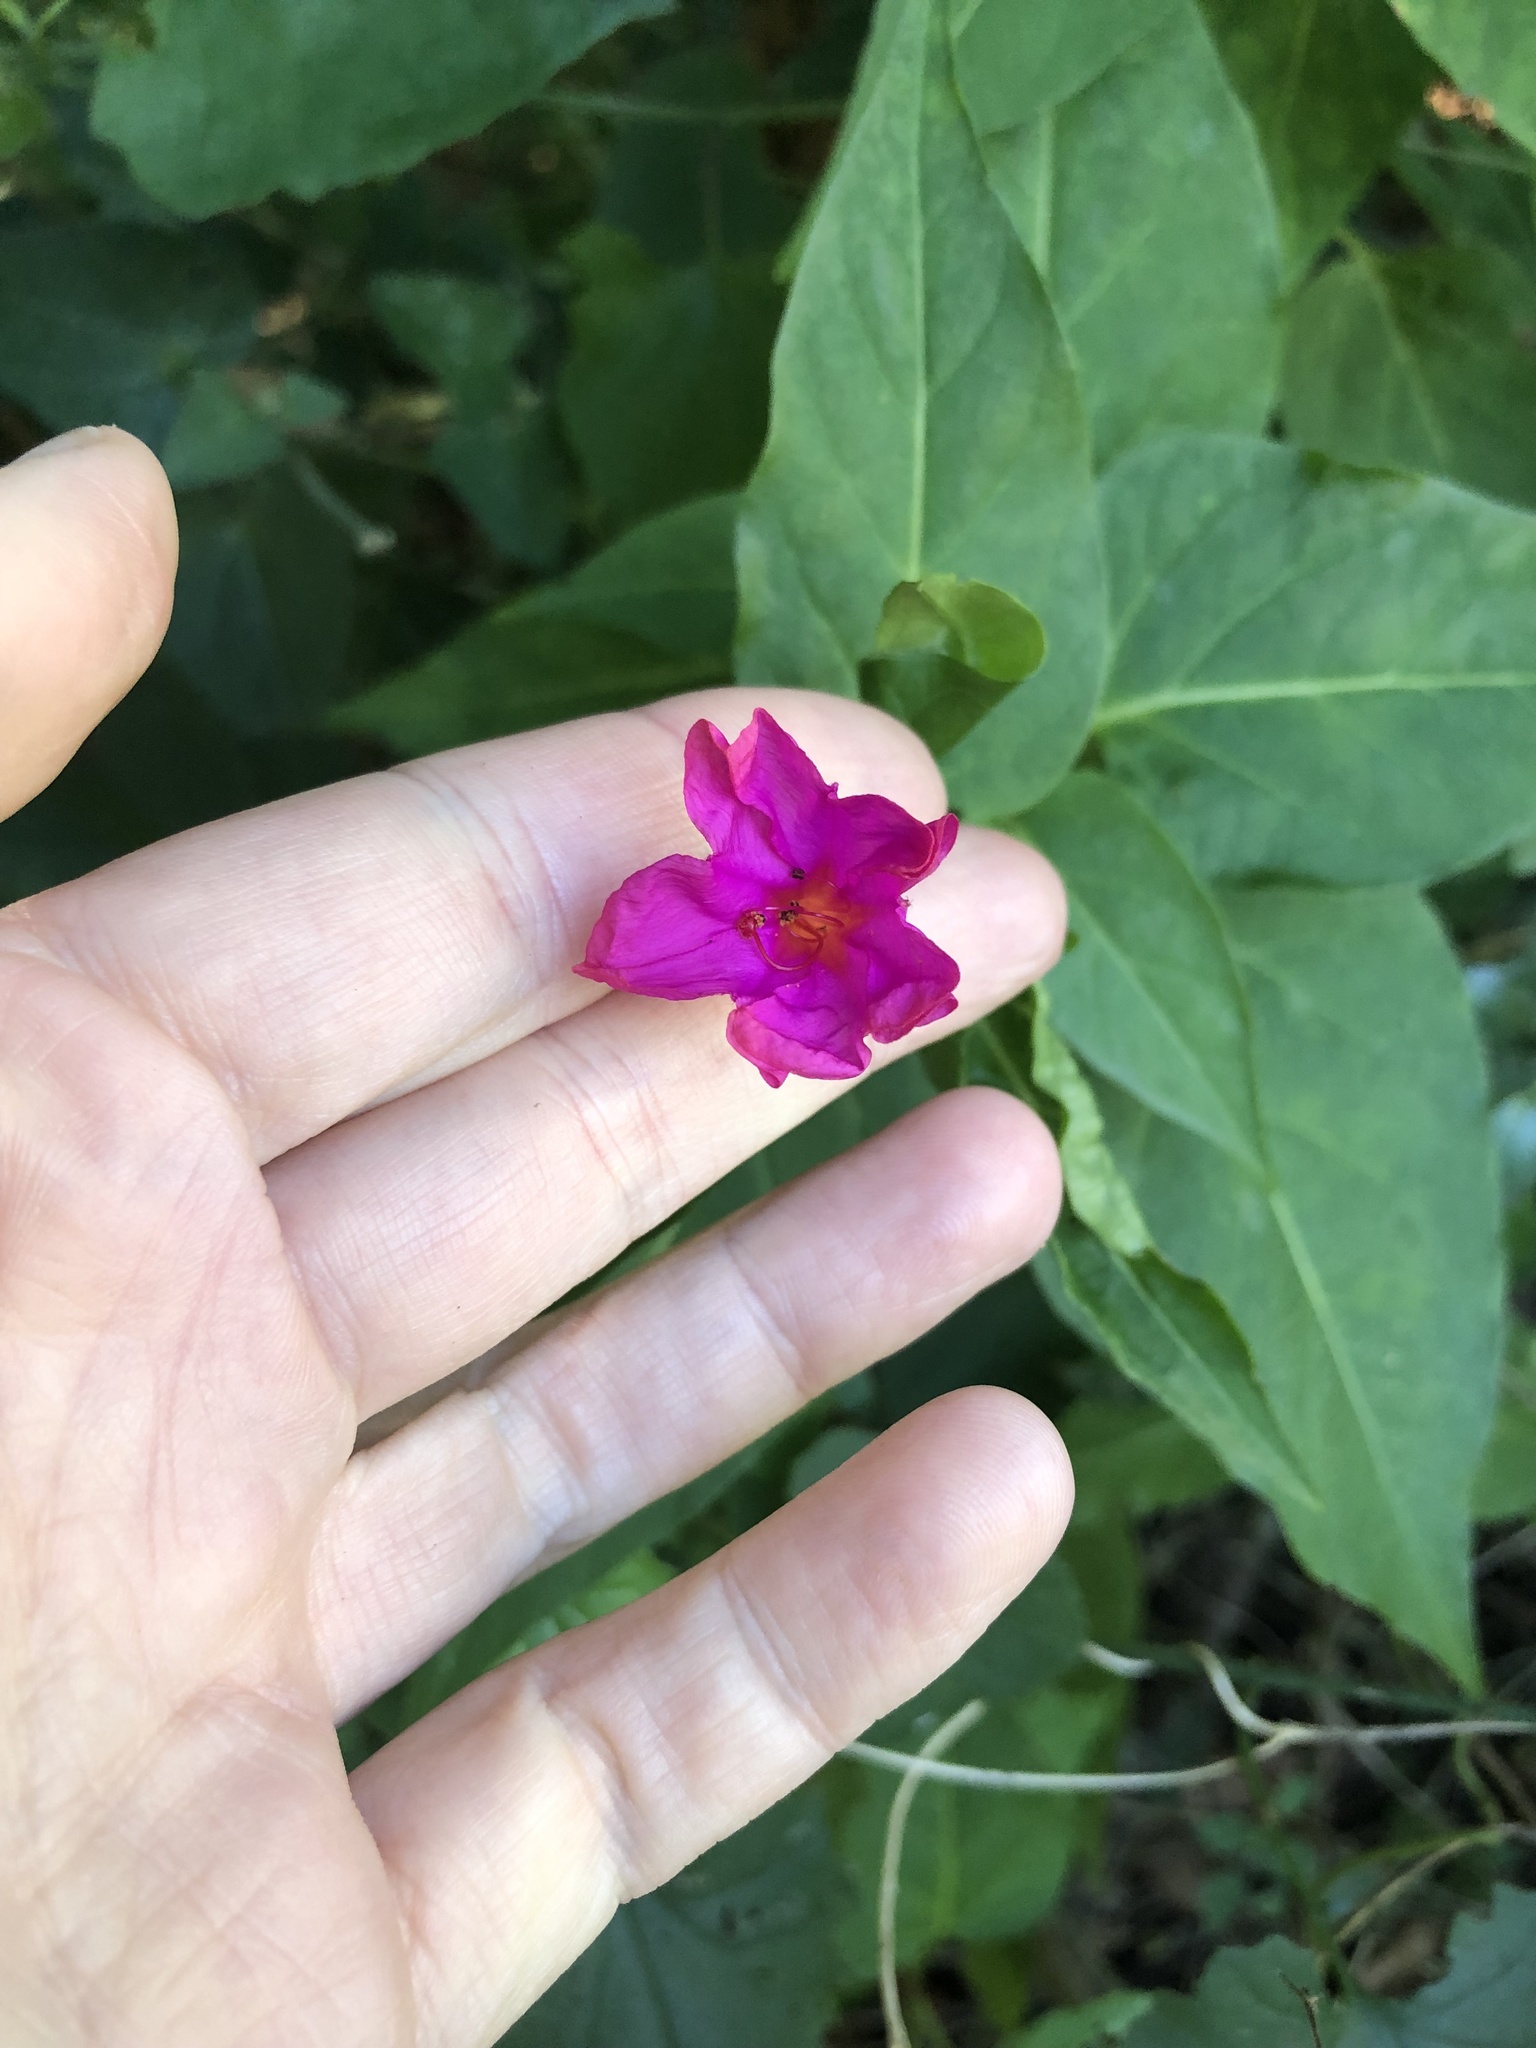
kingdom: Plantae
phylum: Tracheophyta
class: Magnoliopsida
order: Caryophyllales
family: Nyctaginaceae
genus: Mirabilis
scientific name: Mirabilis jalapa
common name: Marvel-of-peru
